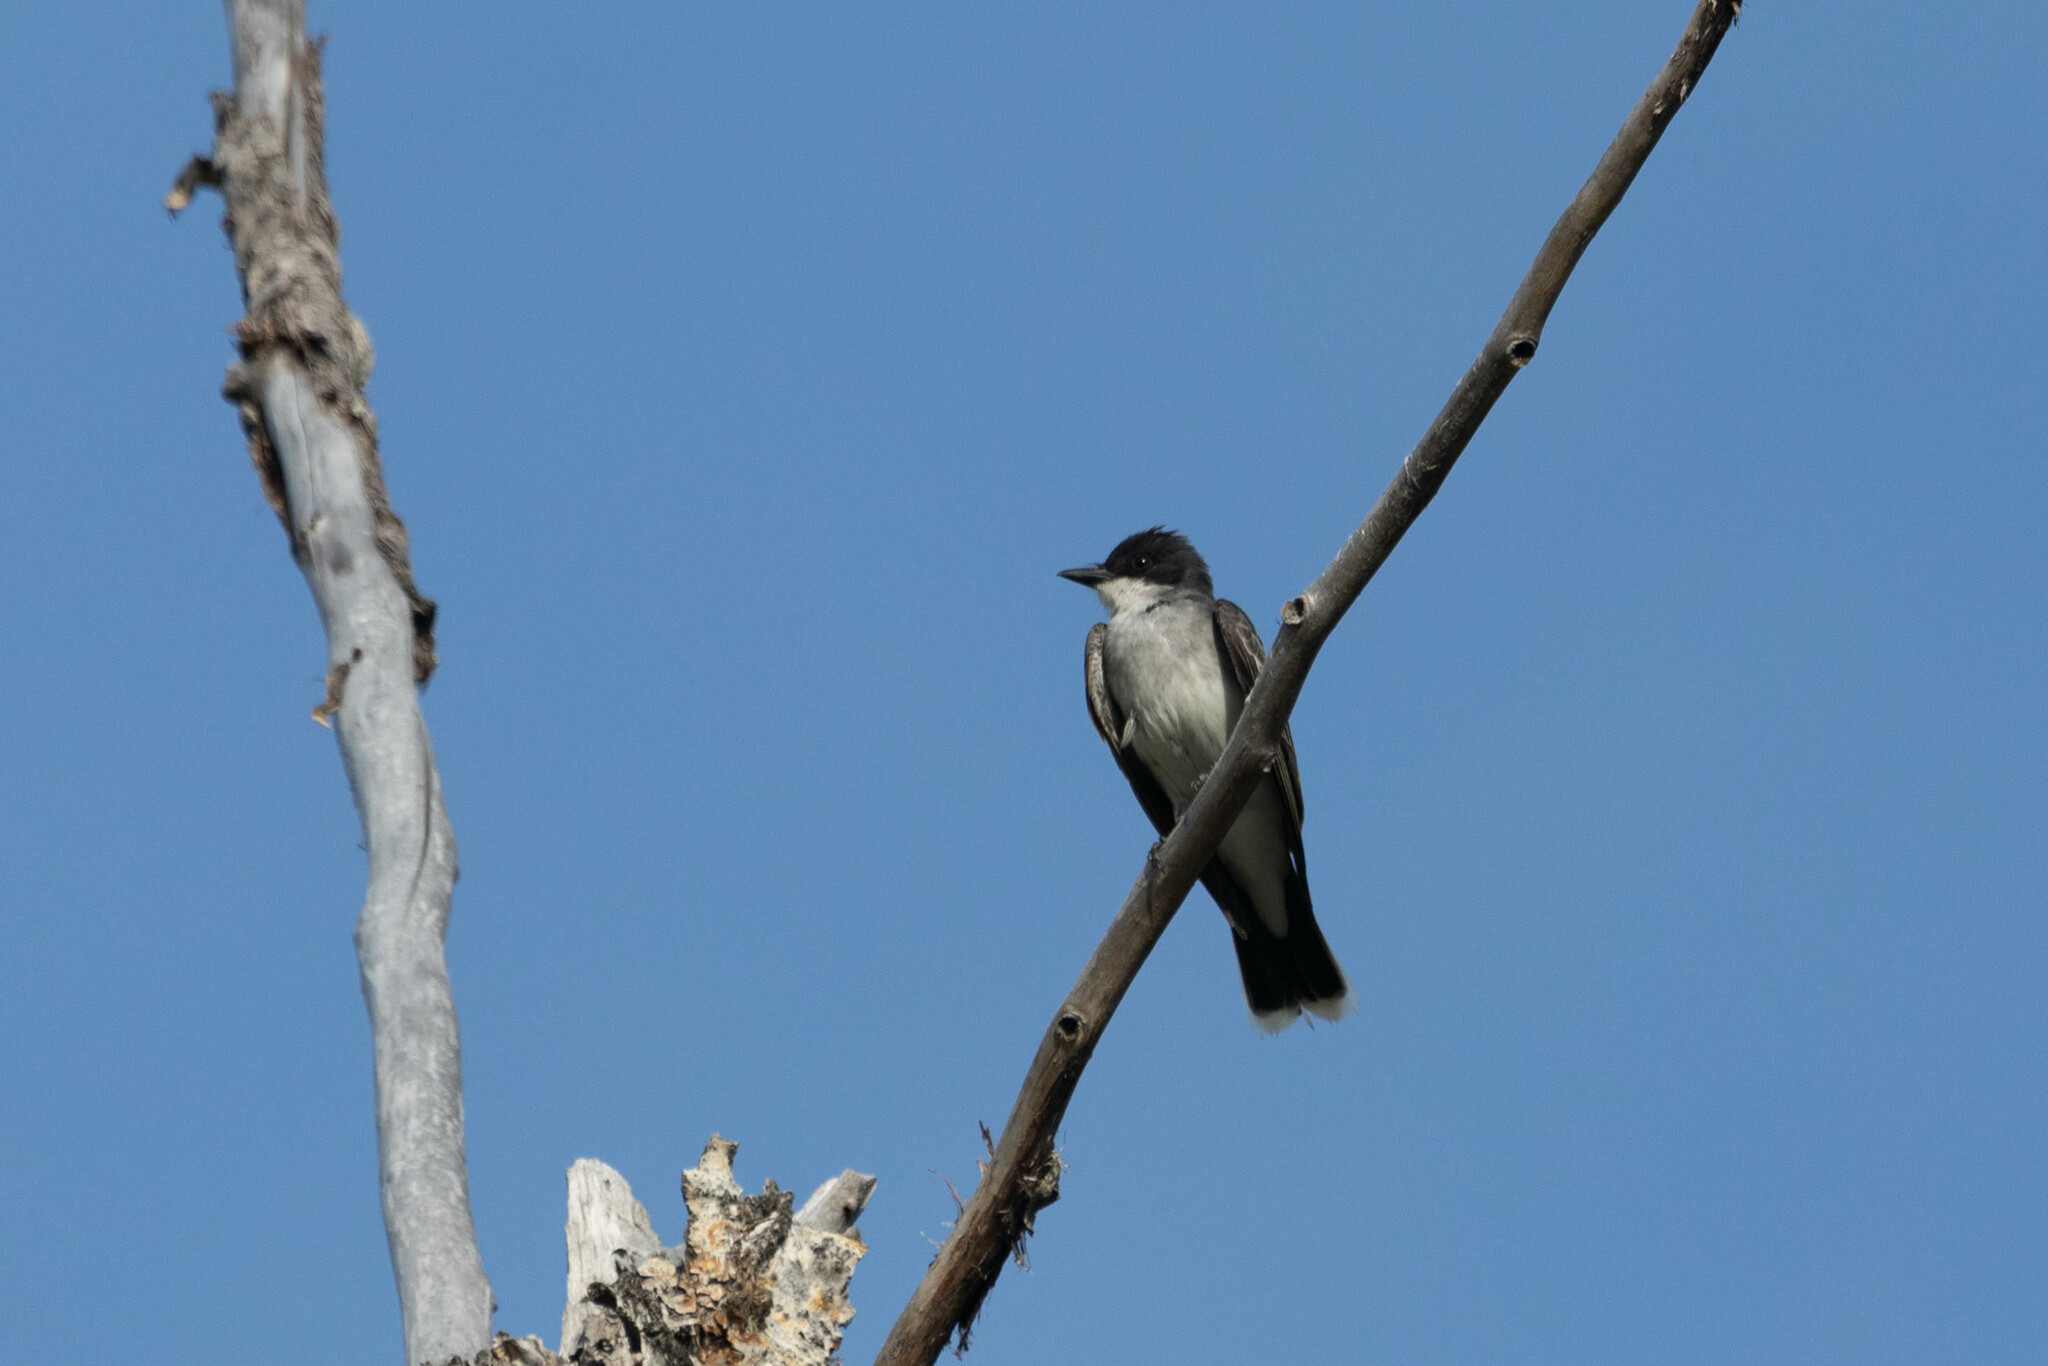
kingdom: Animalia
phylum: Chordata
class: Aves
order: Passeriformes
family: Tyrannidae
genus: Tyrannus
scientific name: Tyrannus tyrannus
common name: Eastern kingbird
